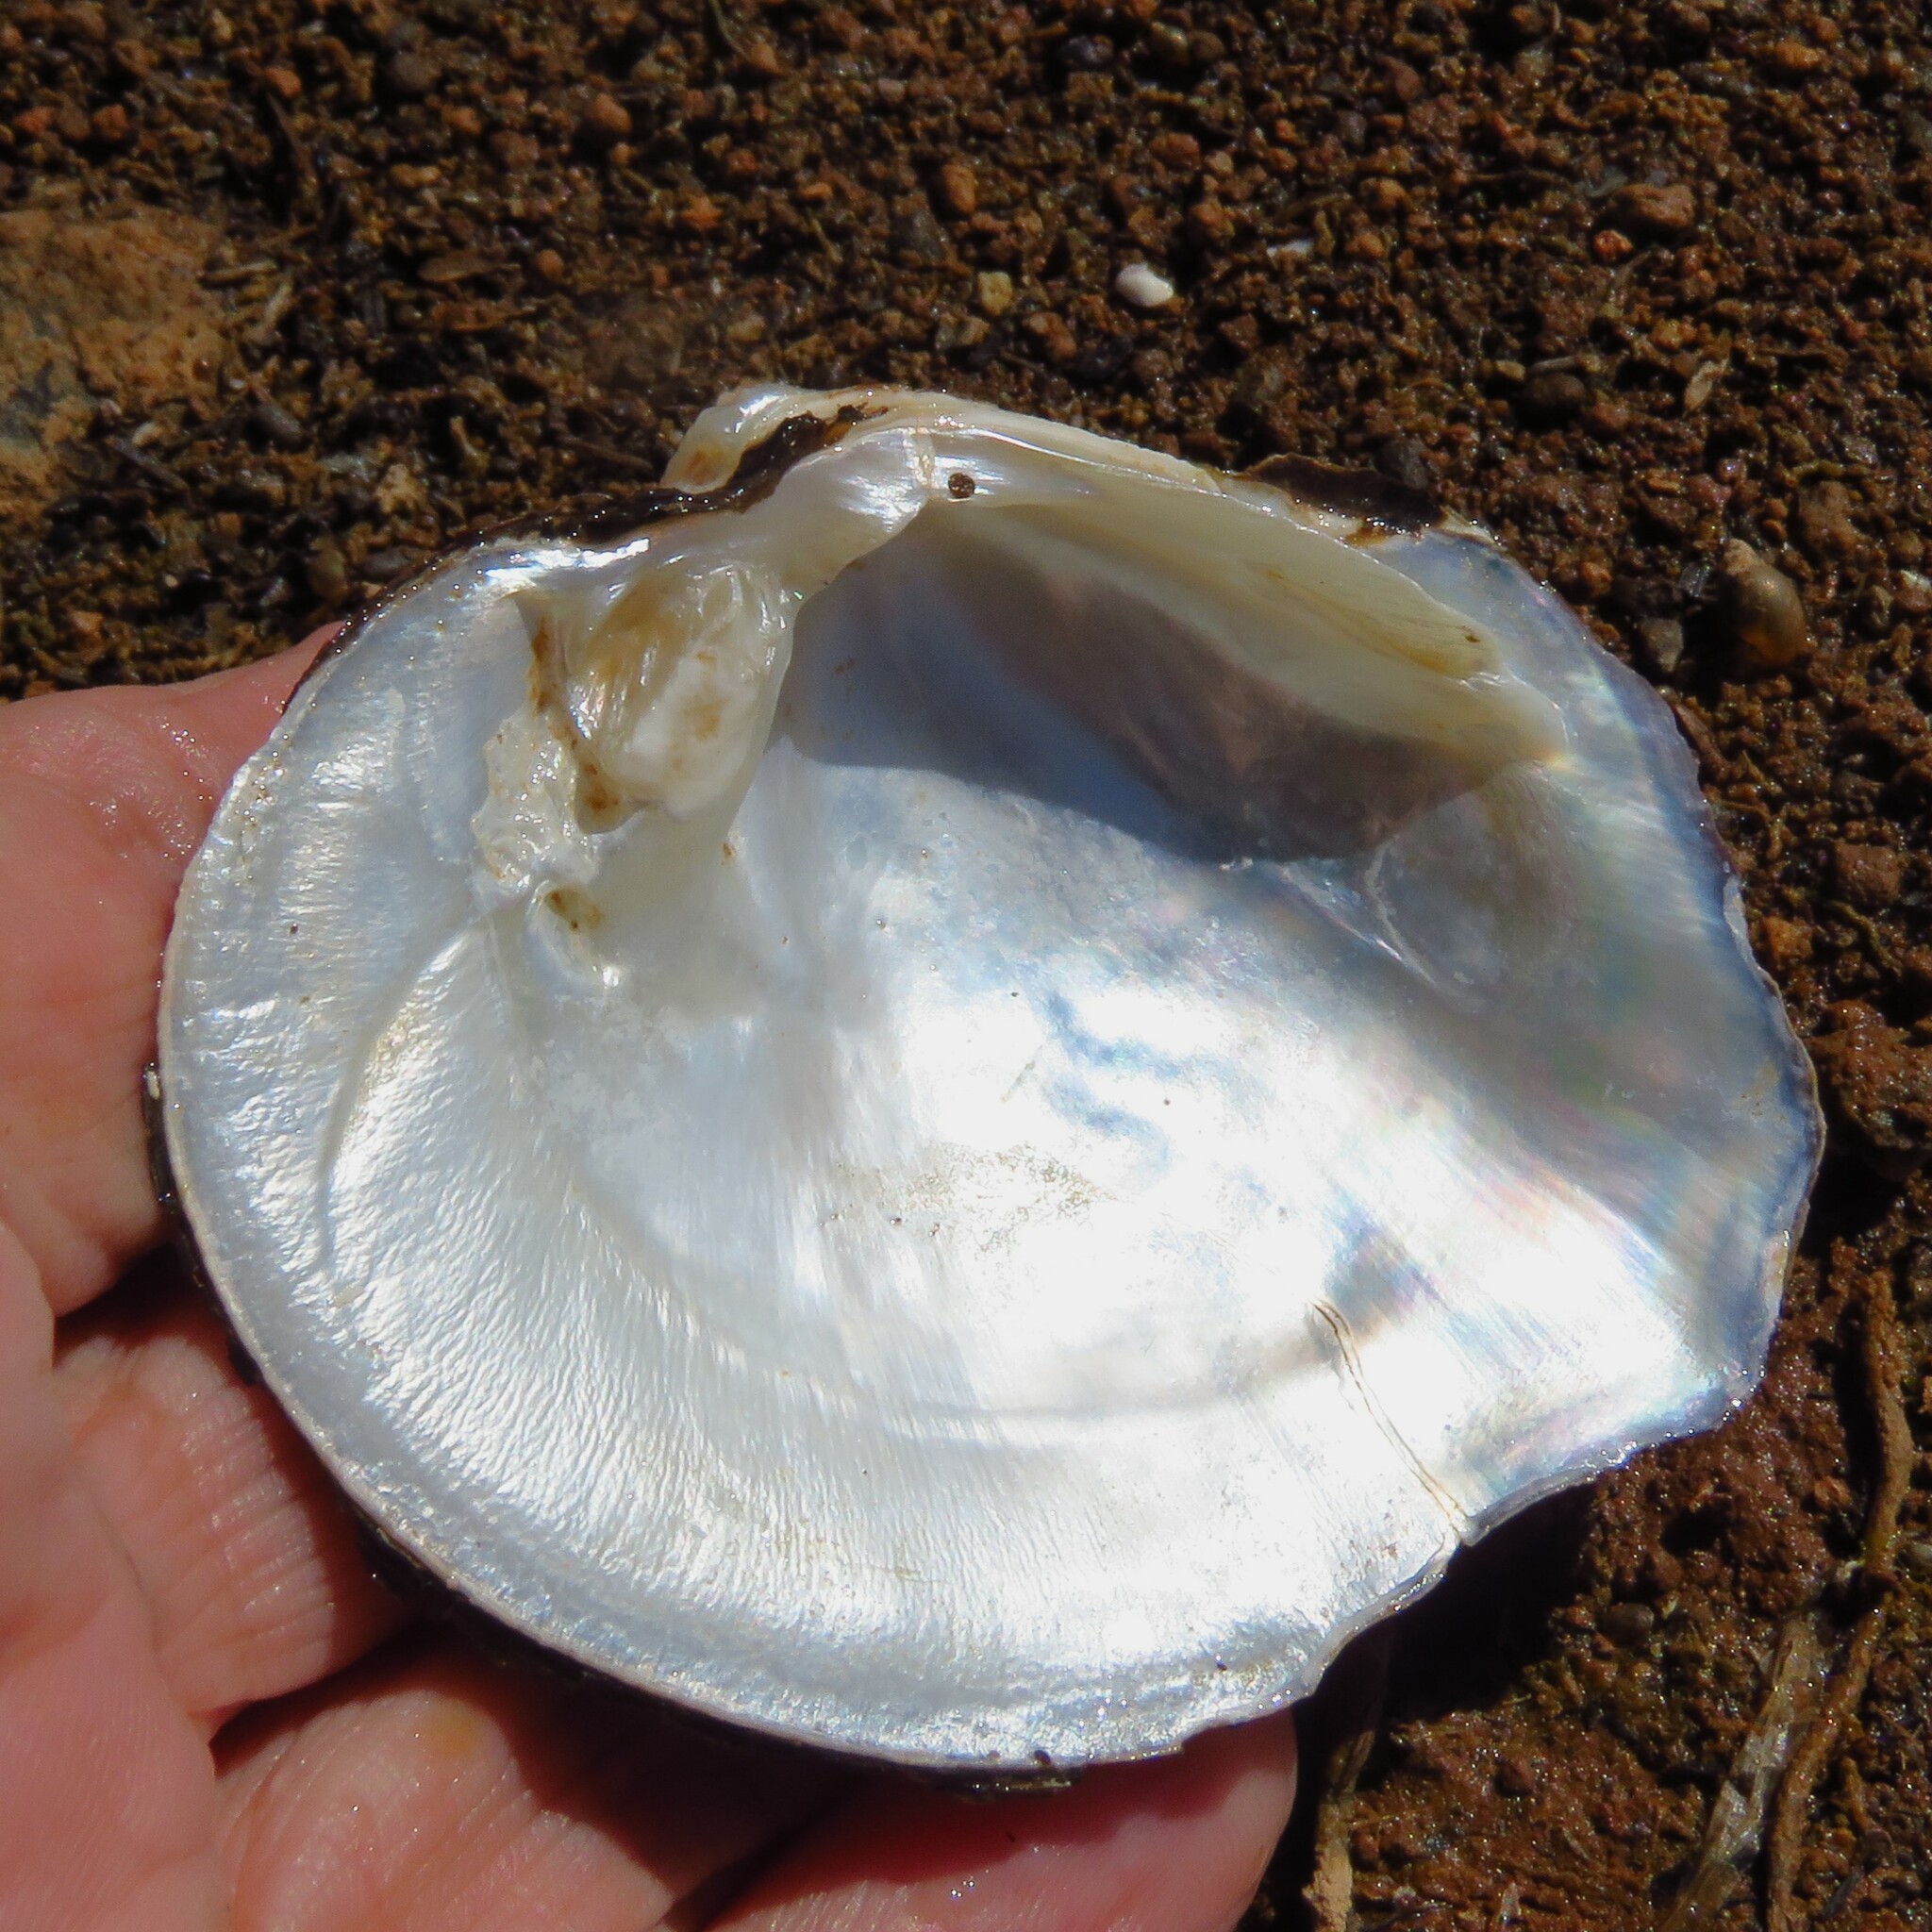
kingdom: Animalia
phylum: Mollusca
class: Bivalvia
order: Unionida
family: Unionidae
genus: Quadrula
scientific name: Quadrula quadrula
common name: Mapleleaf
